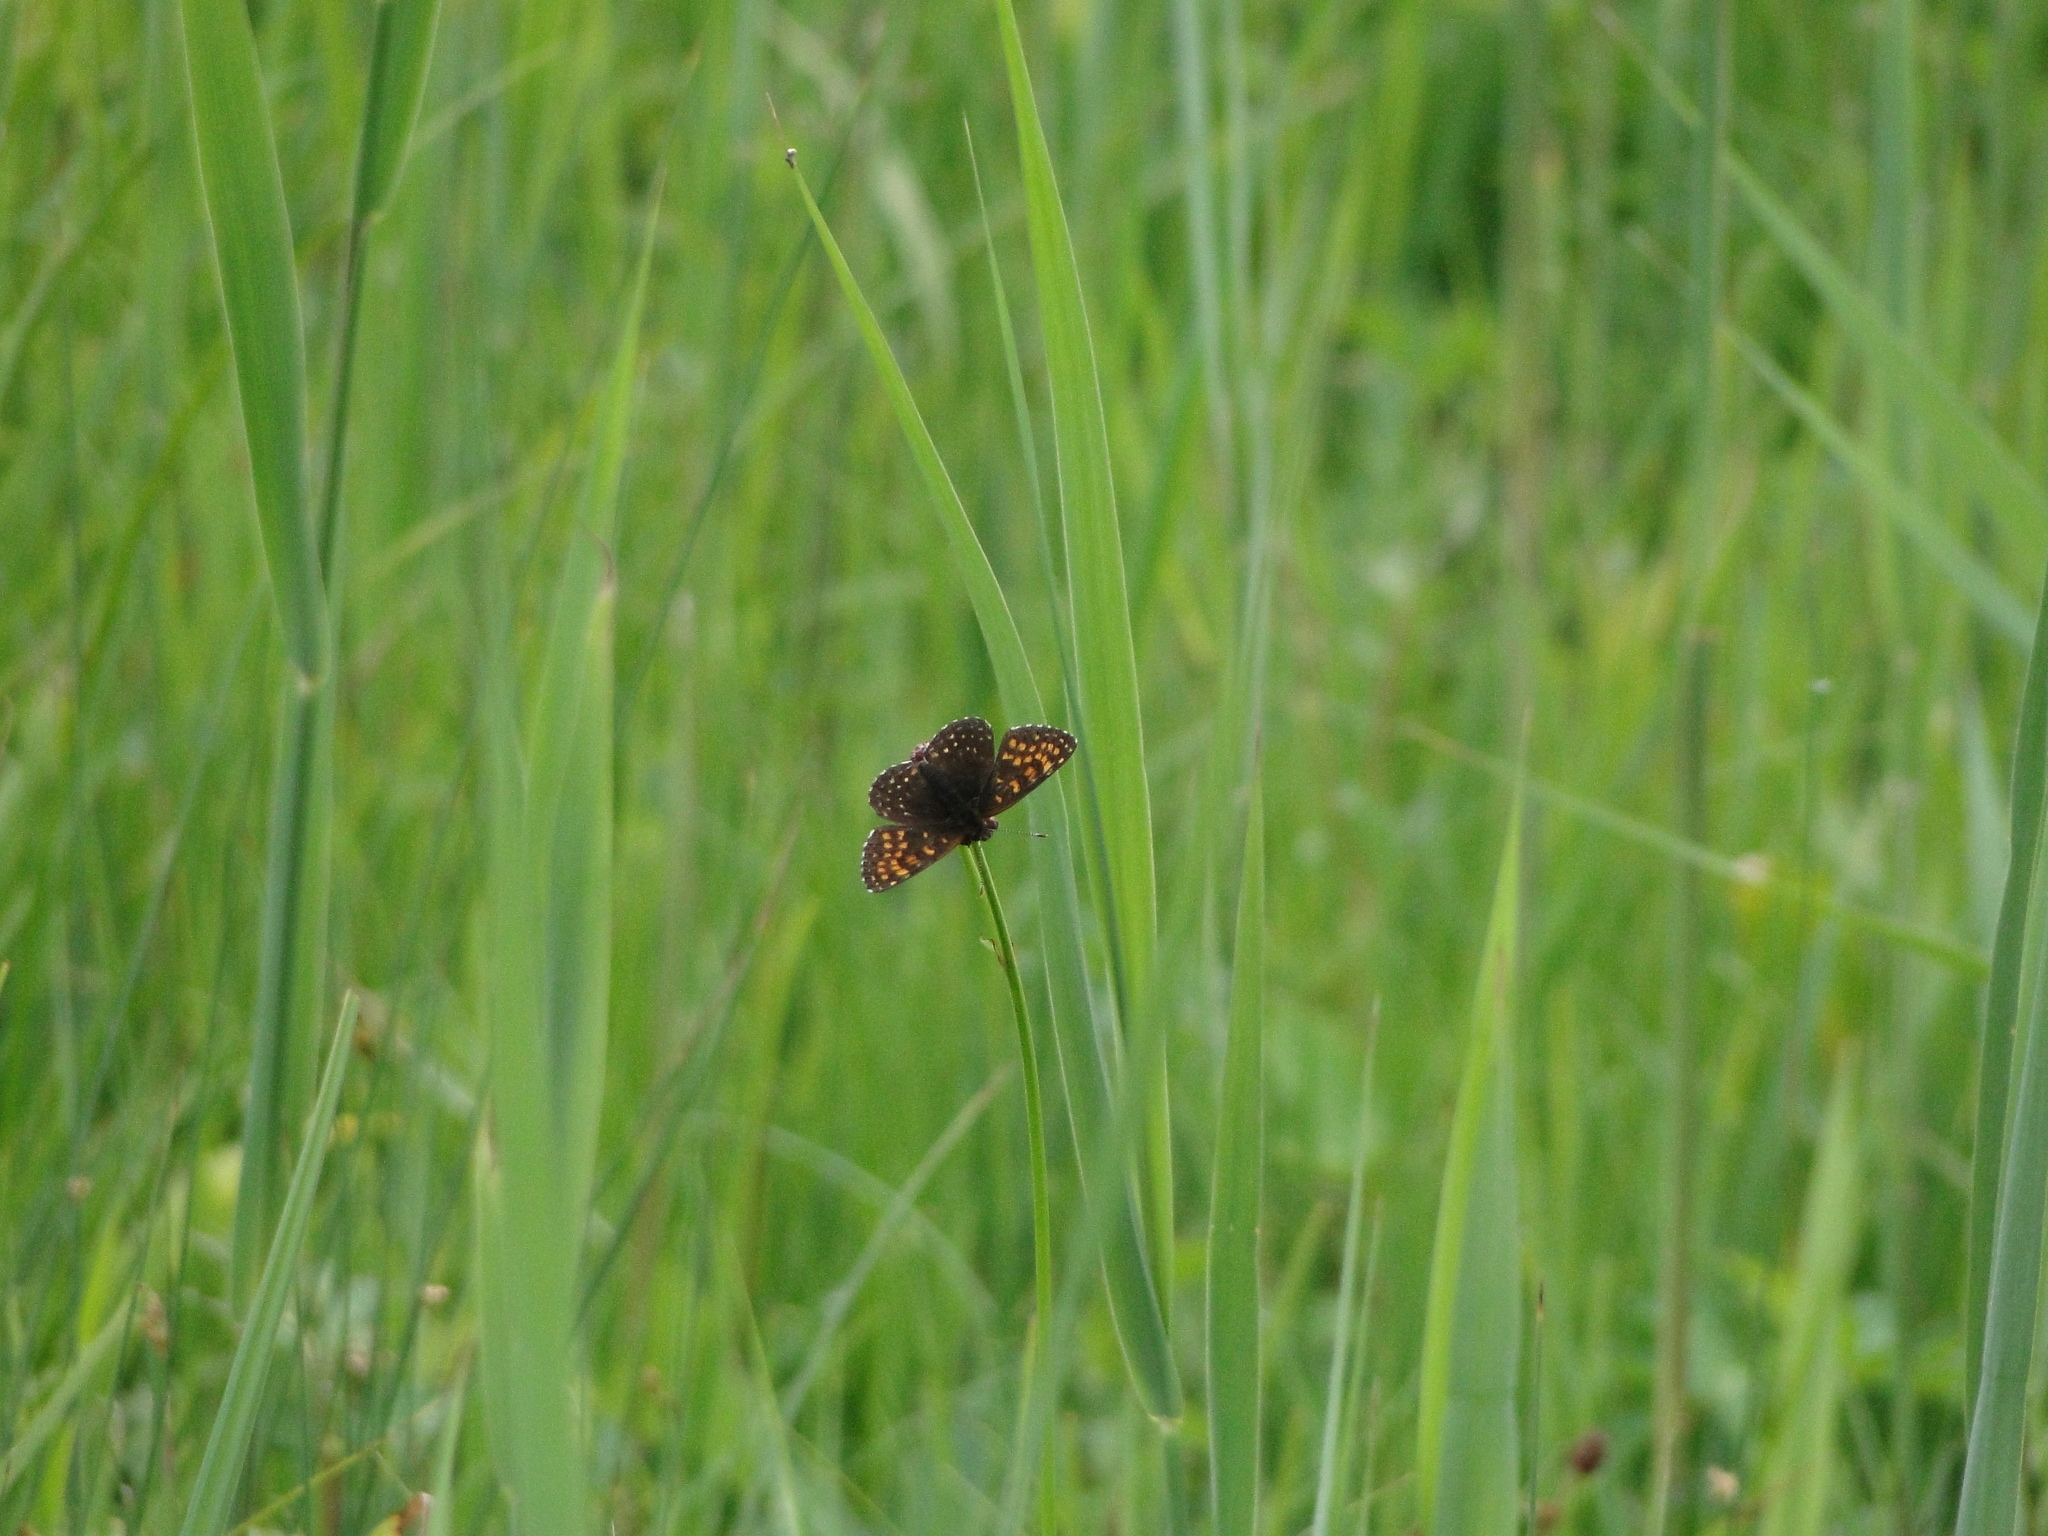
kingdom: Animalia
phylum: Arthropoda
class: Insecta
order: Lepidoptera
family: Nymphalidae
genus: Melitaea
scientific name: Melitaea diamina
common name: False heath fritillary
